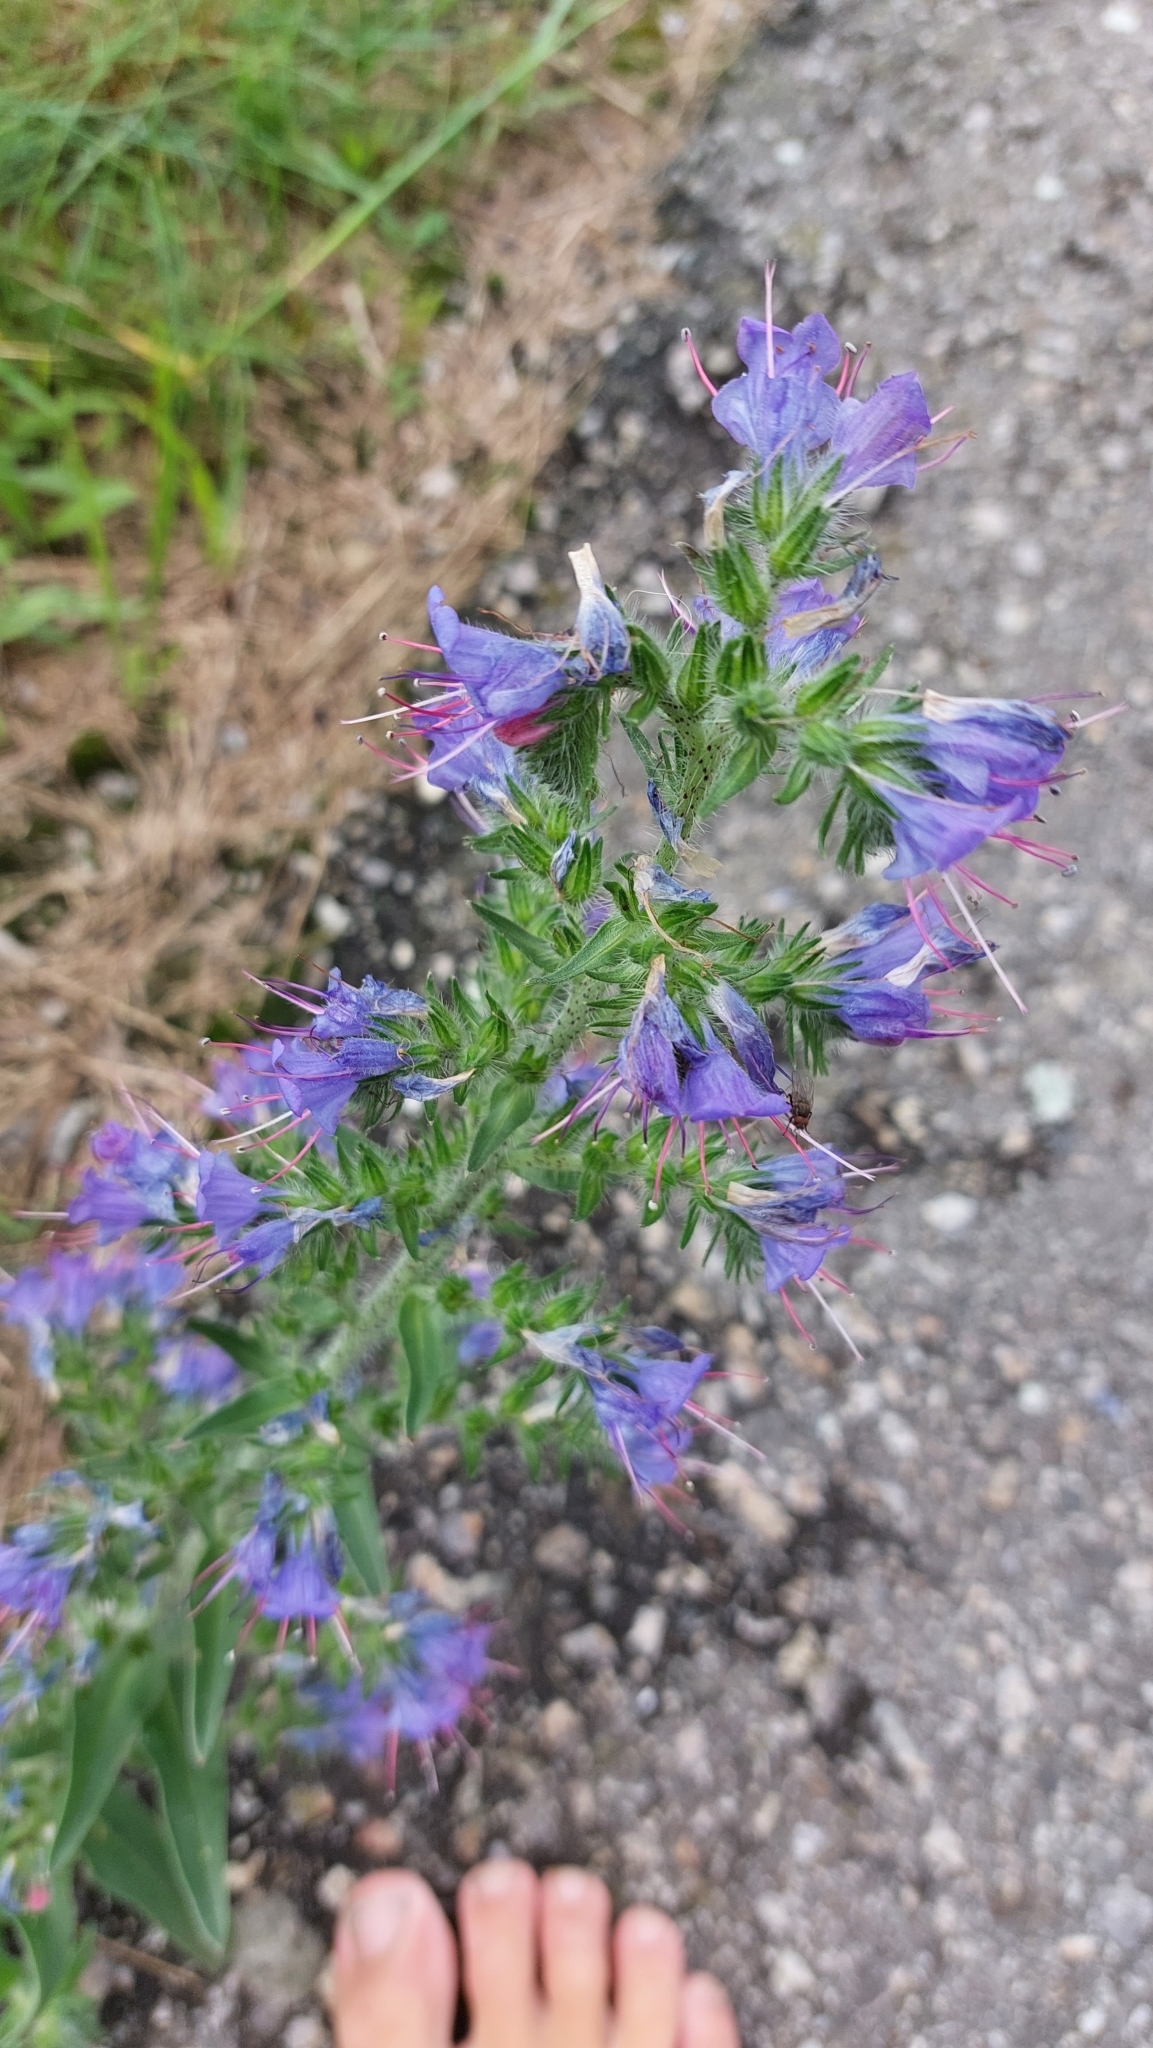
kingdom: Plantae
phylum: Tracheophyta
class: Magnoliopsida
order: Boraginales
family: Boraginaceae
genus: Echium
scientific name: Echium vulgare
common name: Common viper's bugloss
